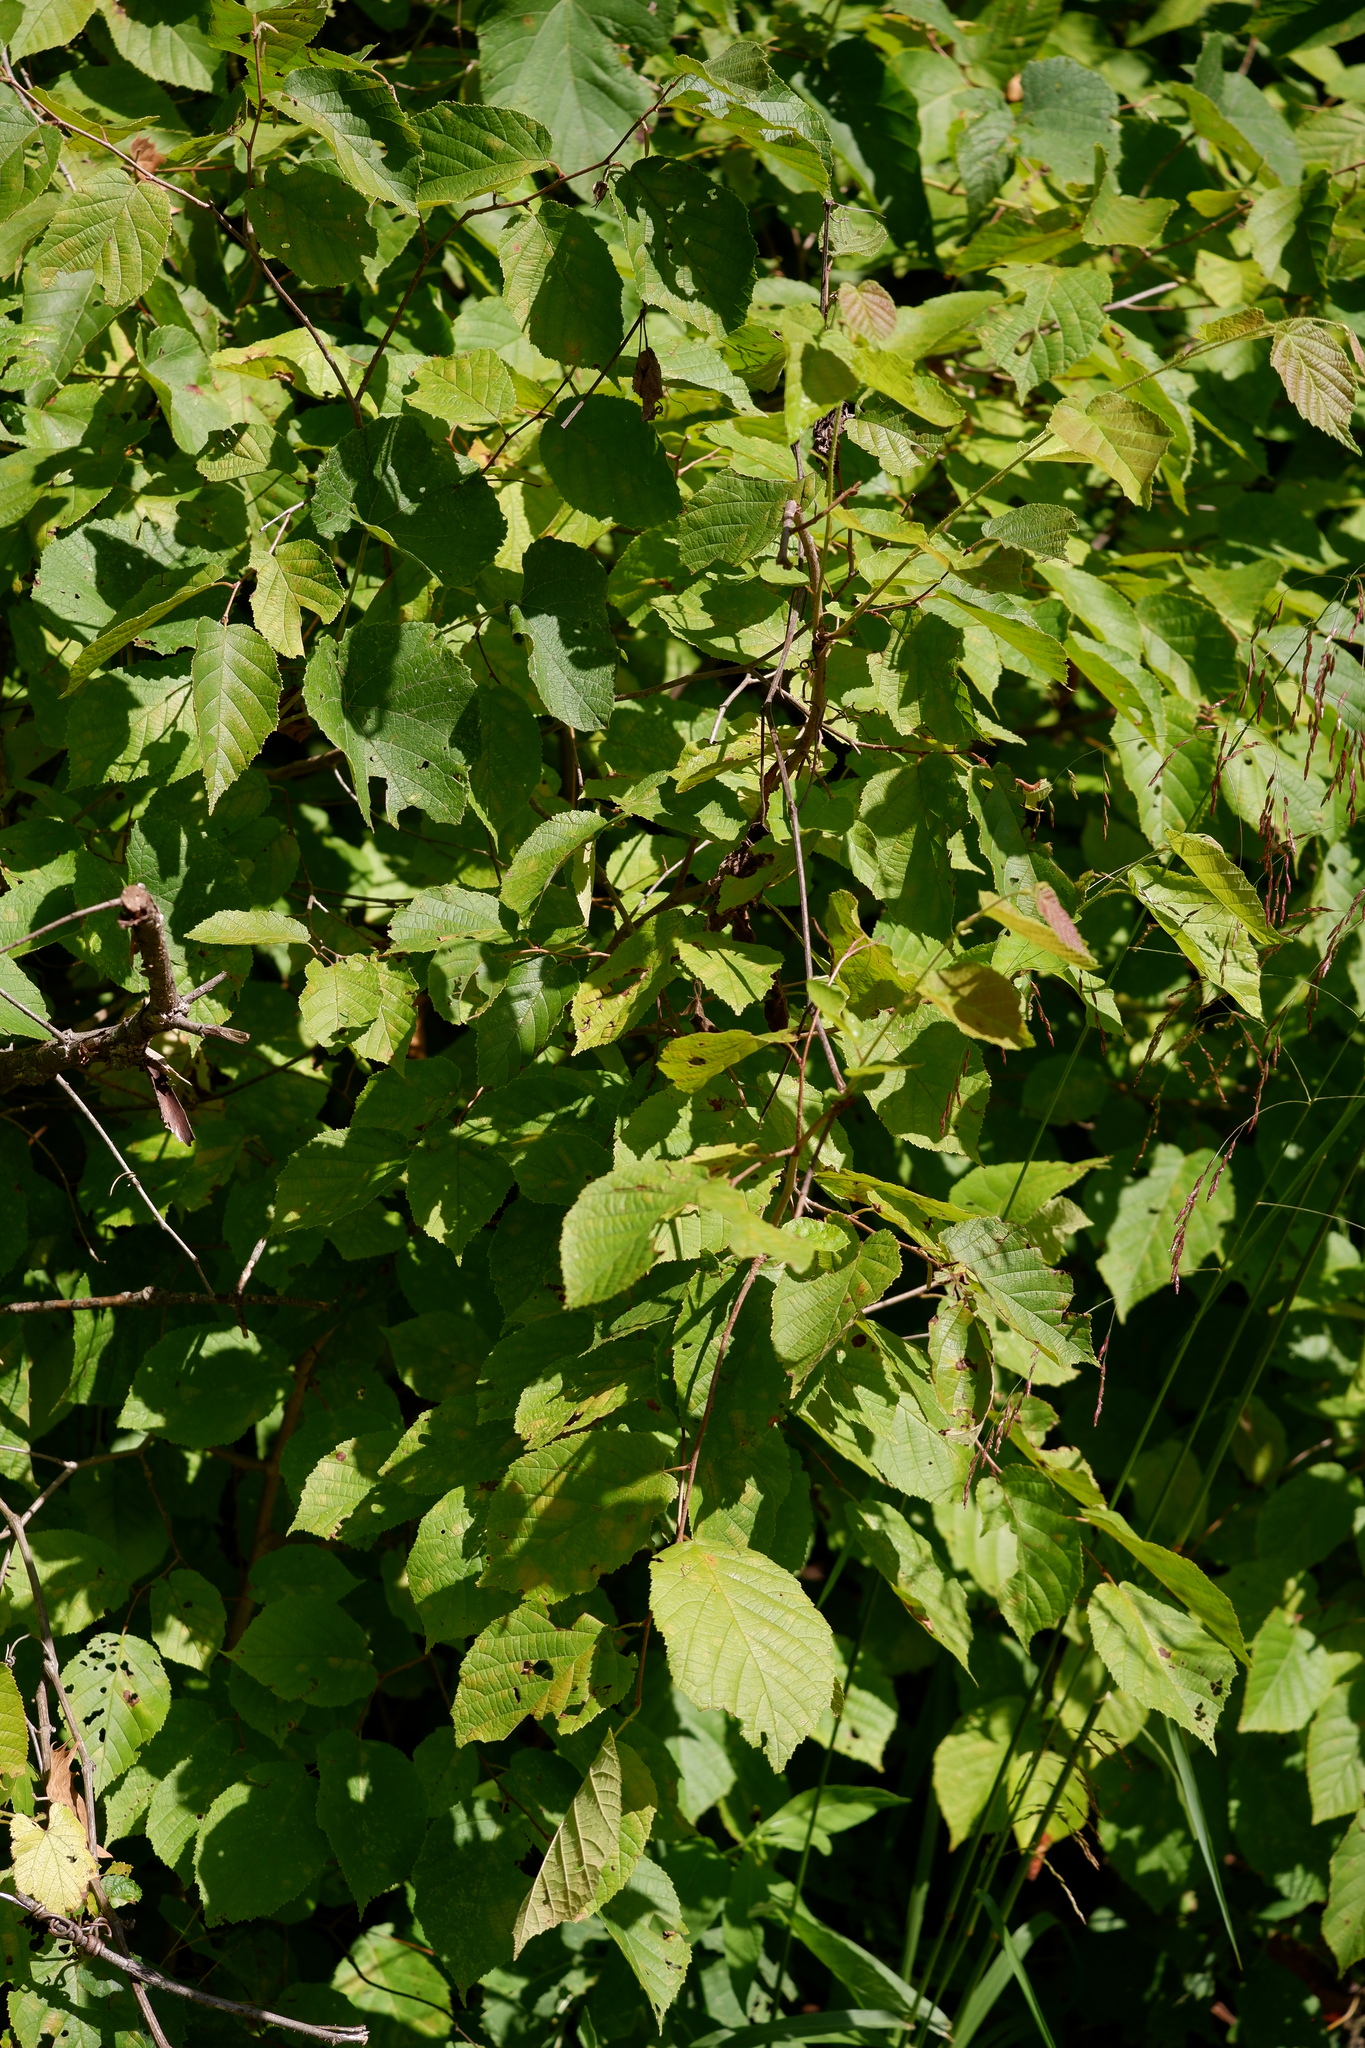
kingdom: Plantae
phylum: Tracheophyta
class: Magnoliopsida
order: Fagales
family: Betulaceae
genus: Corylus
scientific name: Corylus americana
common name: American hazel
